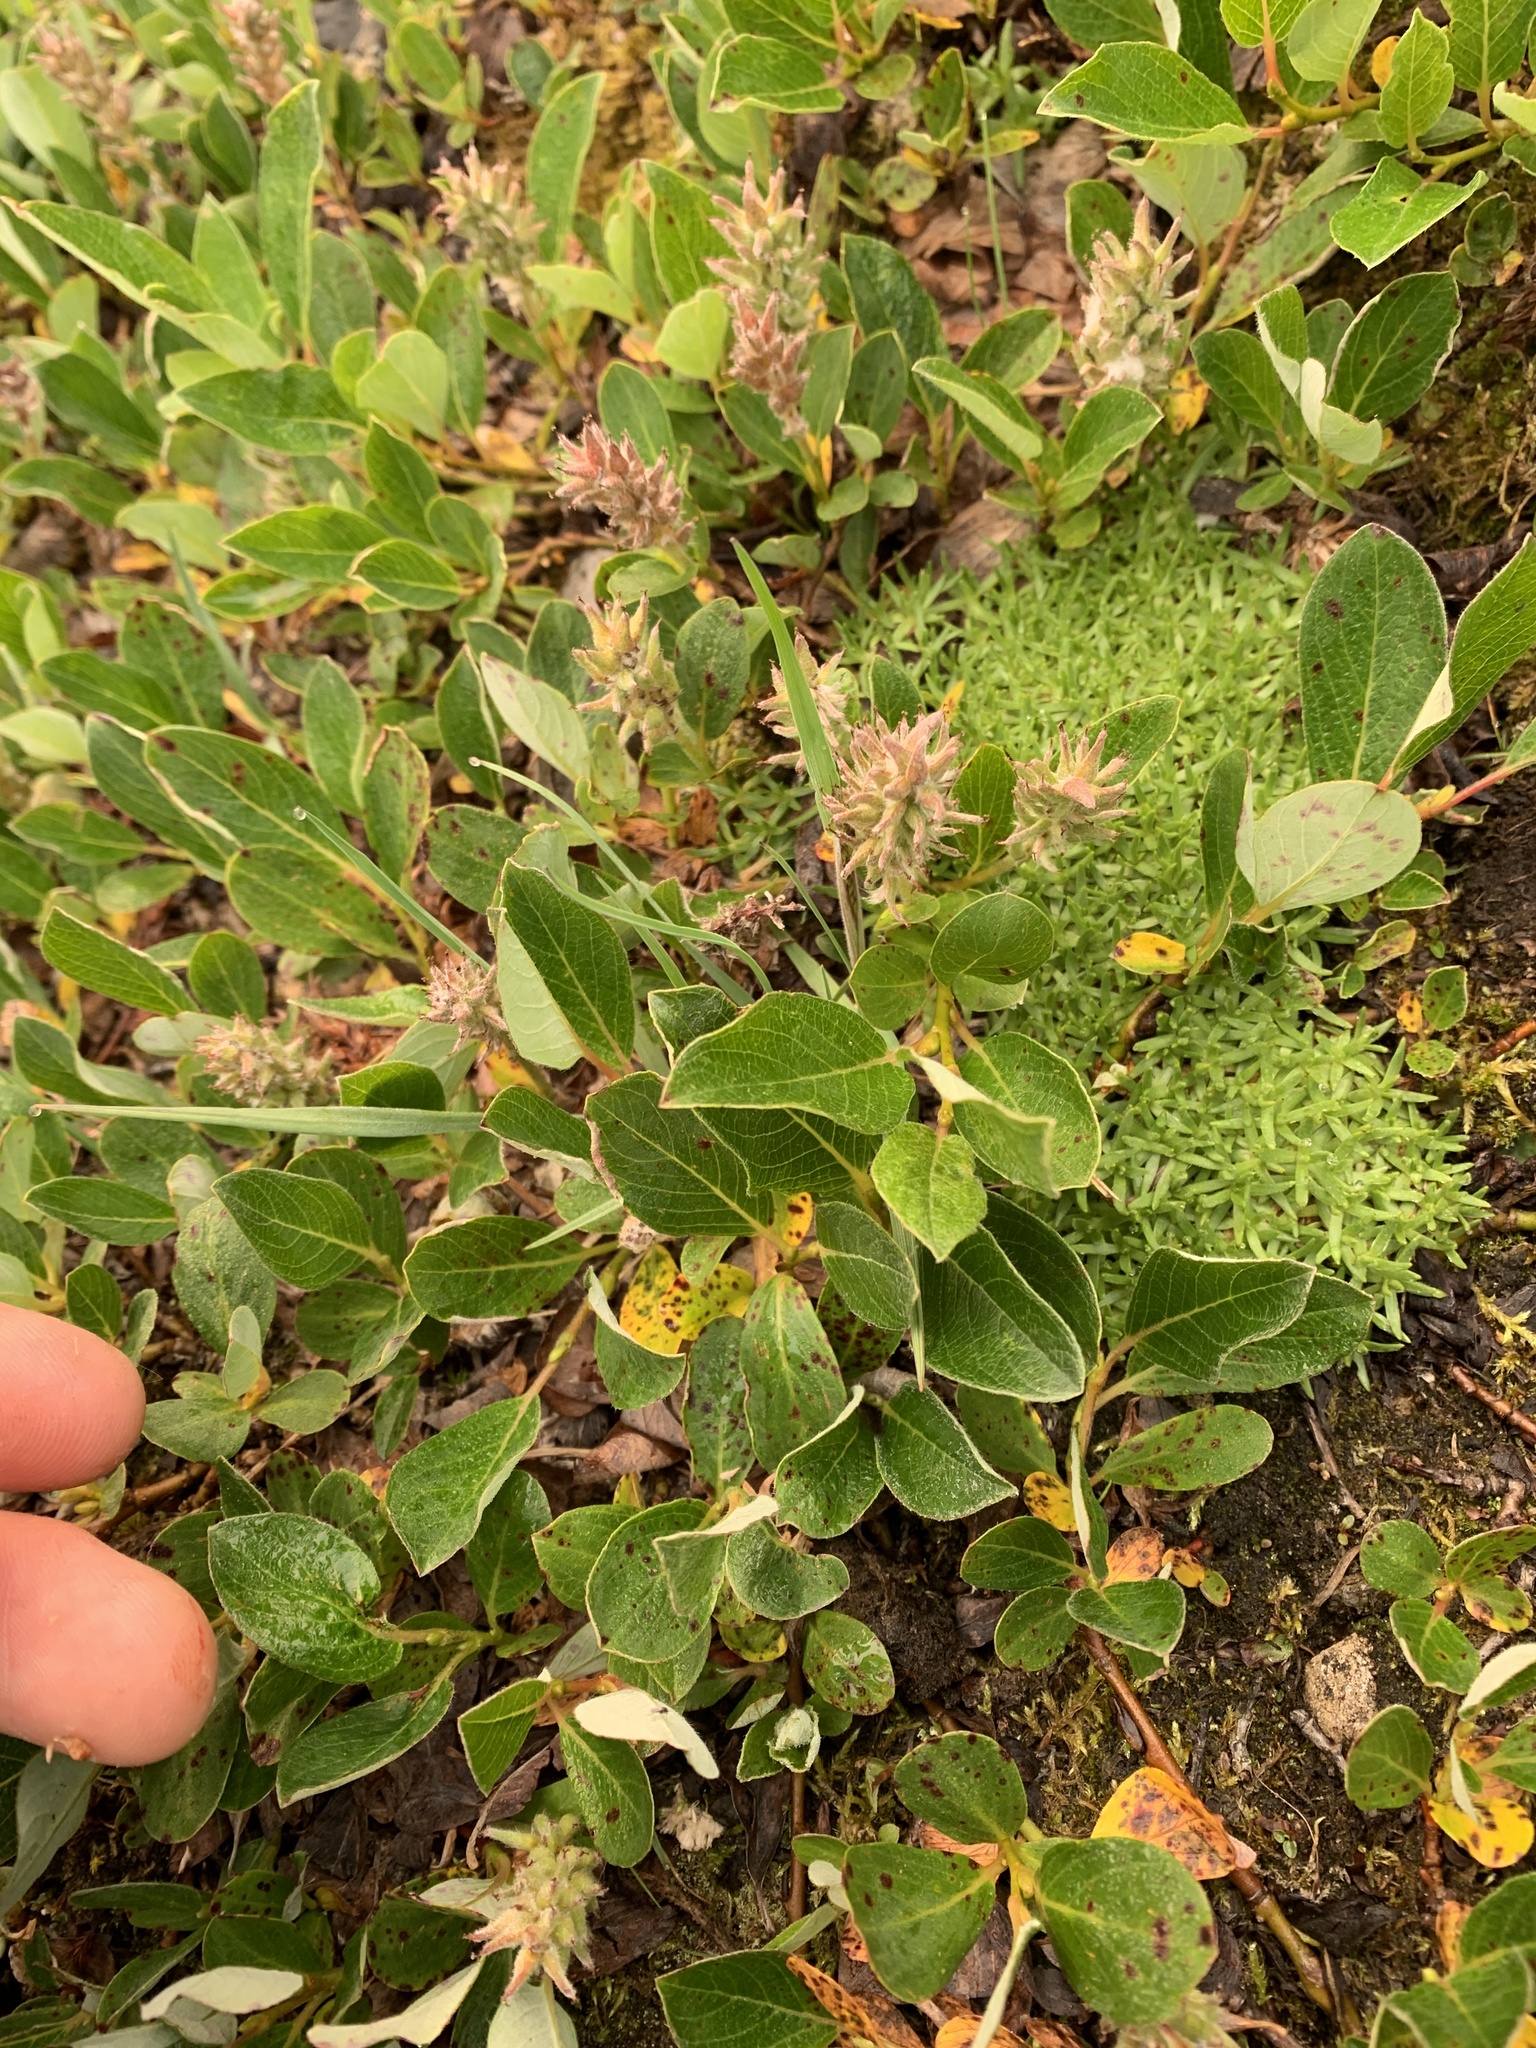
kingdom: Plantae
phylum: Tracheophyta
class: Magnoliopsida
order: Malpighiales
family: Salicaceae
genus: Salix
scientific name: Salix arctica
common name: Arctic willow
